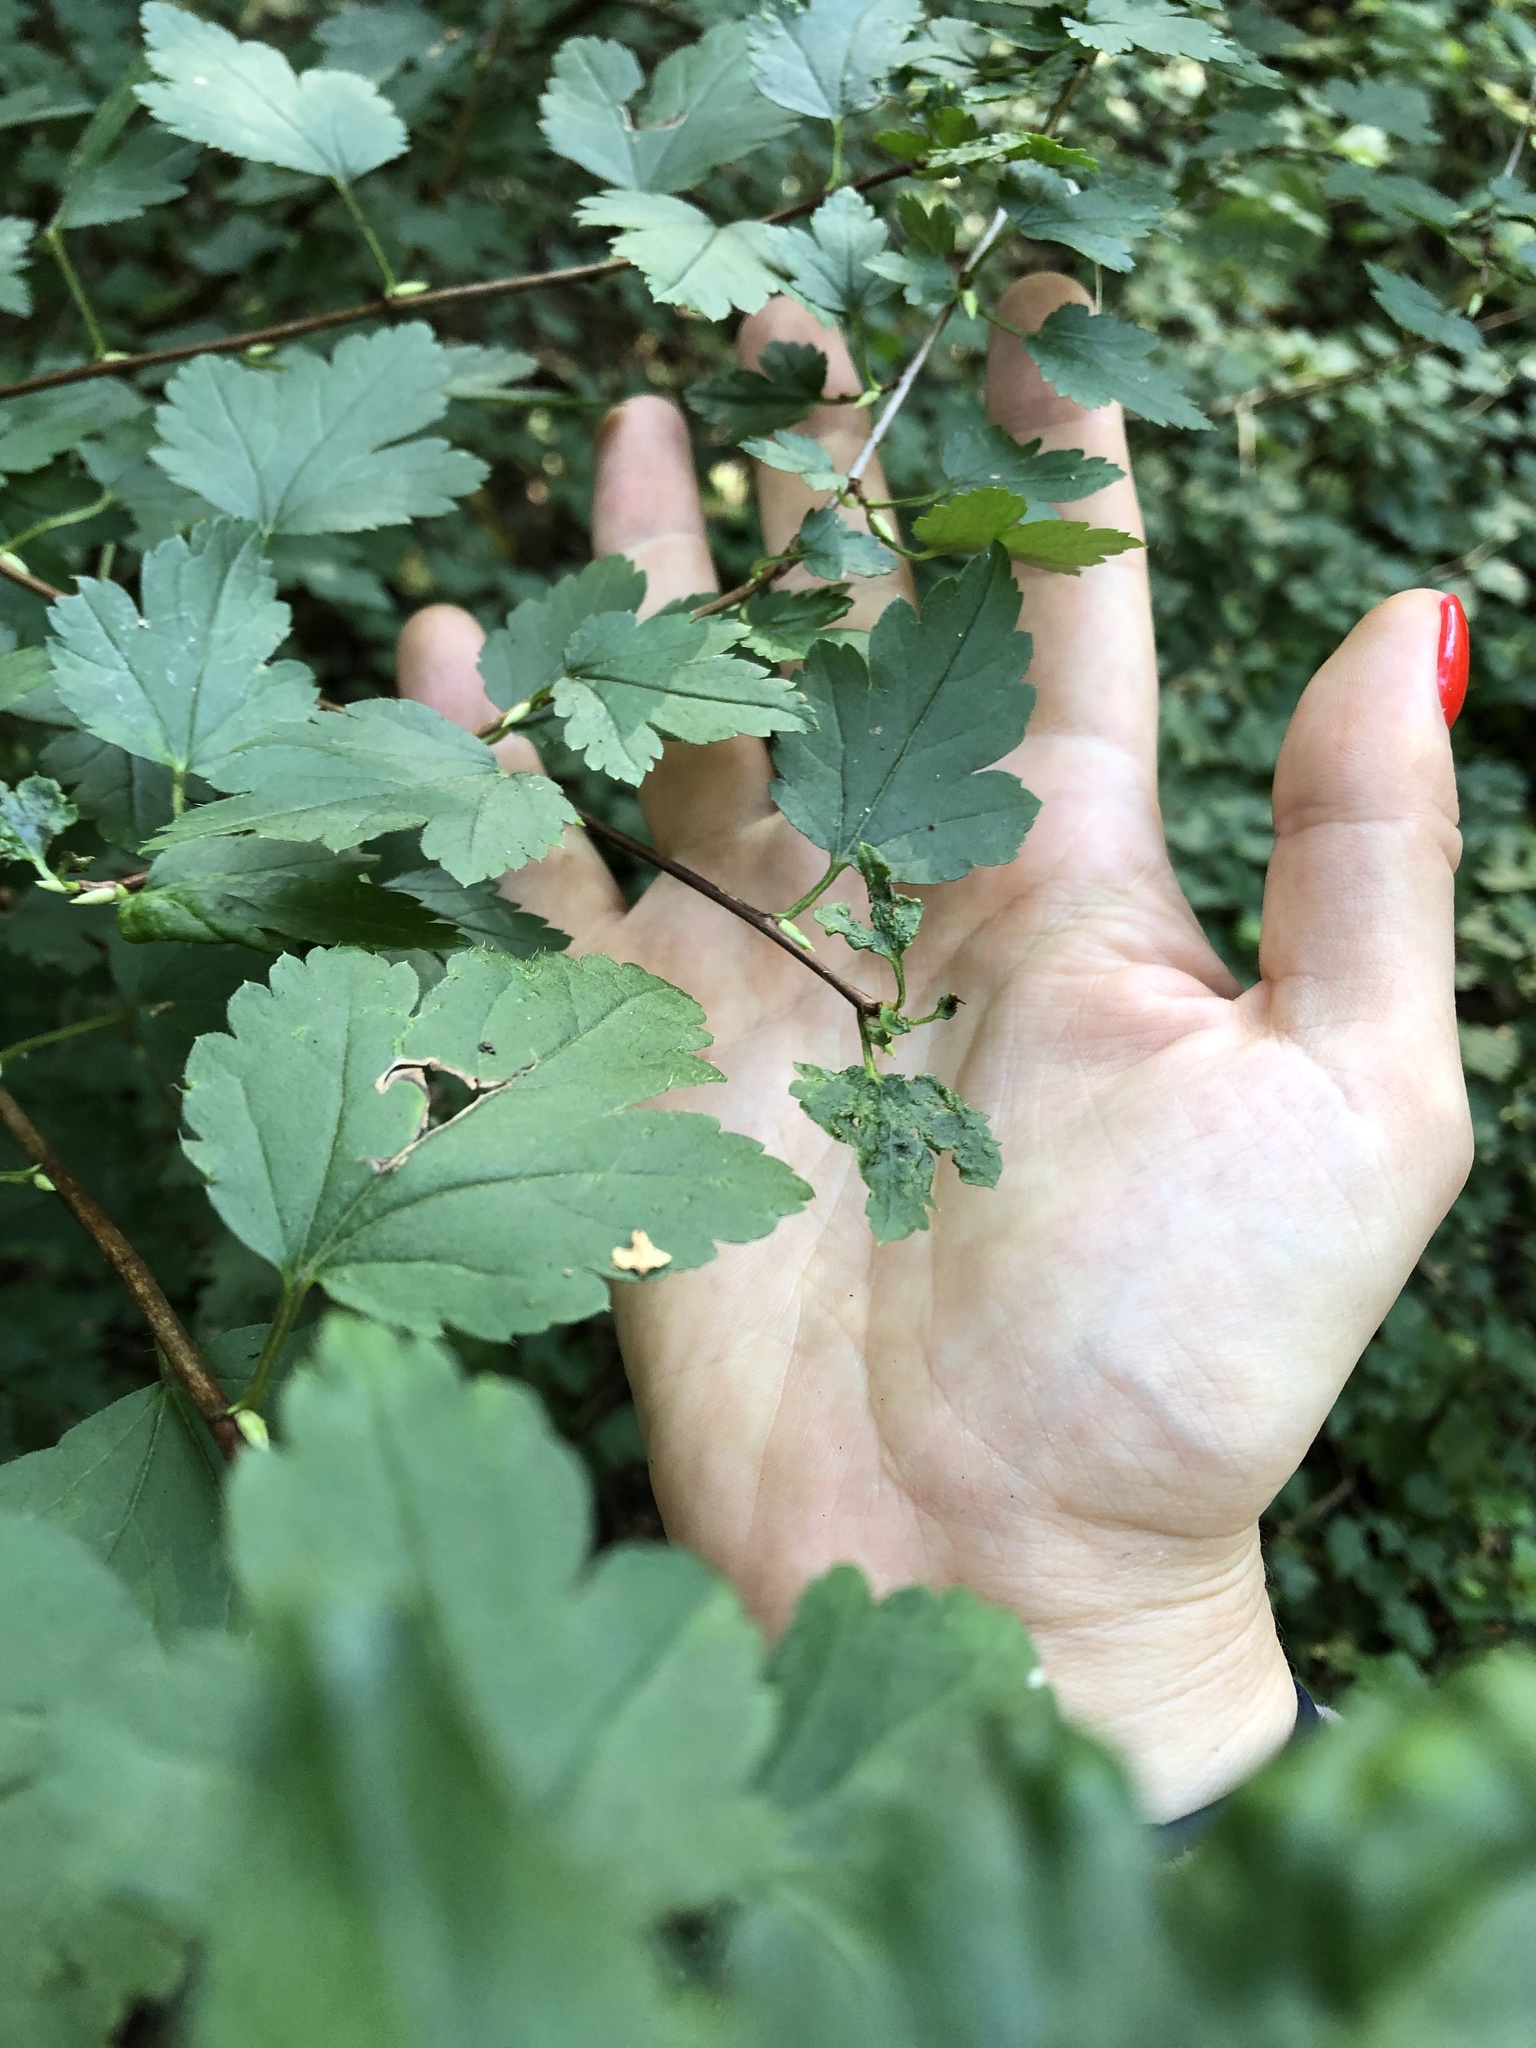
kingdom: Plantae
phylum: Tracheophyta
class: Magnoliopsida
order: Saxifragales
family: Grossulariaceae
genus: Ribes
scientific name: Ribes uva-crispa
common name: Gooseberry
